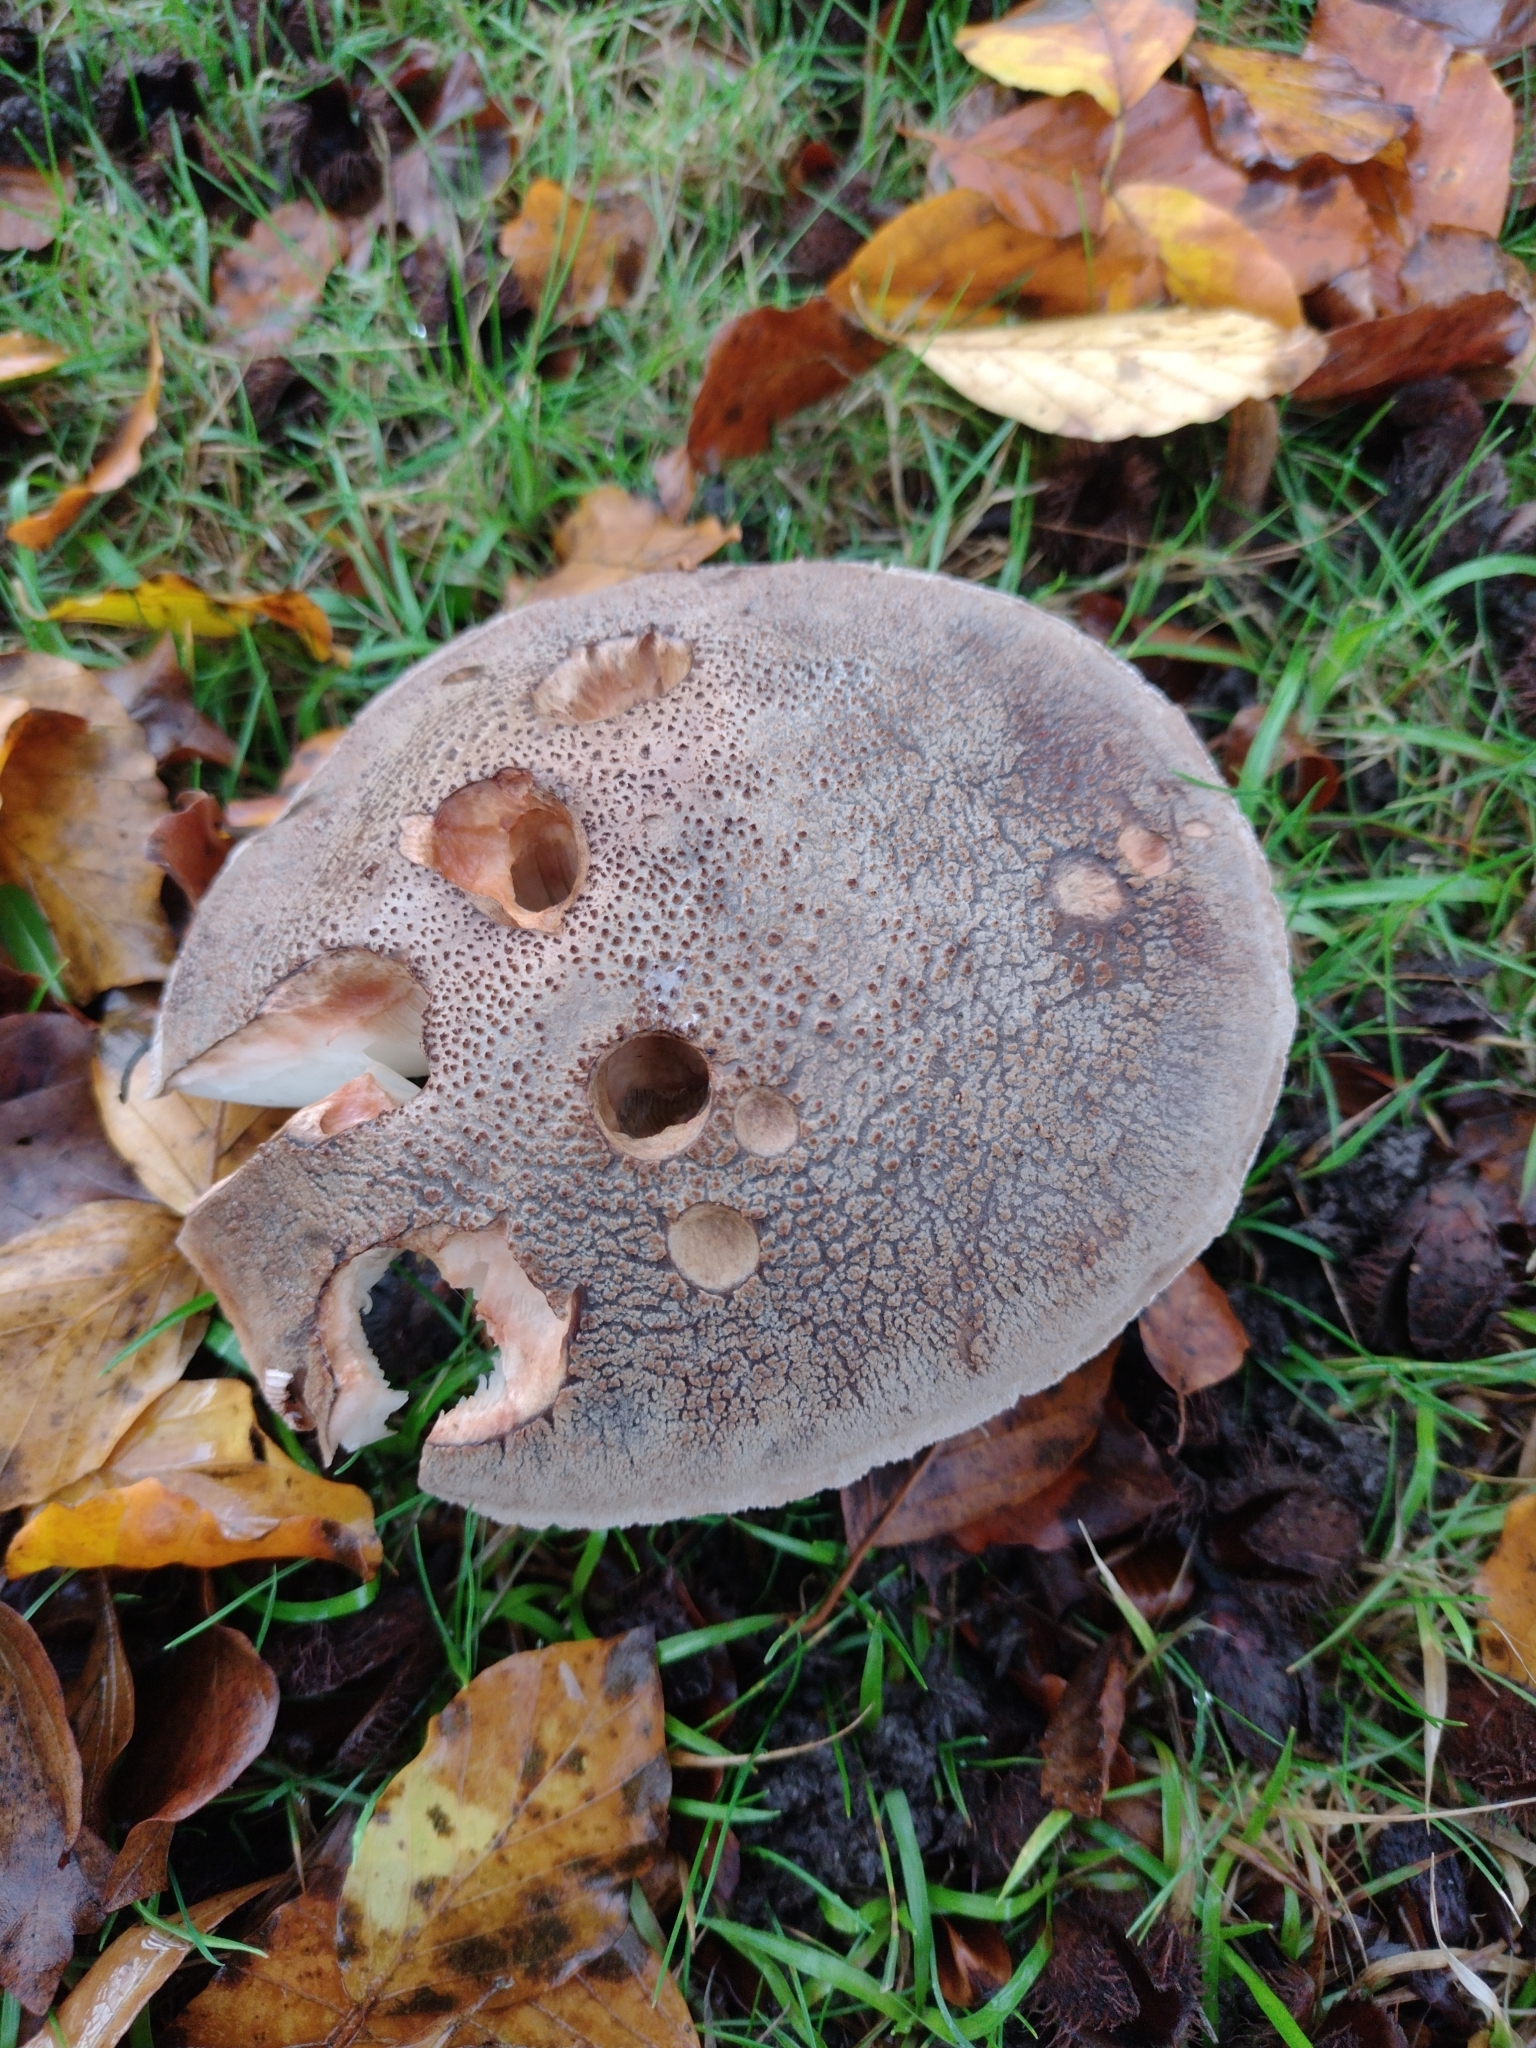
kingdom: Fungi
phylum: Basidiomycota
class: Agaricomycetes
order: Agaricales
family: Amanitaceae
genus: Amanita
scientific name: Amanita rubescens
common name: Blusher
